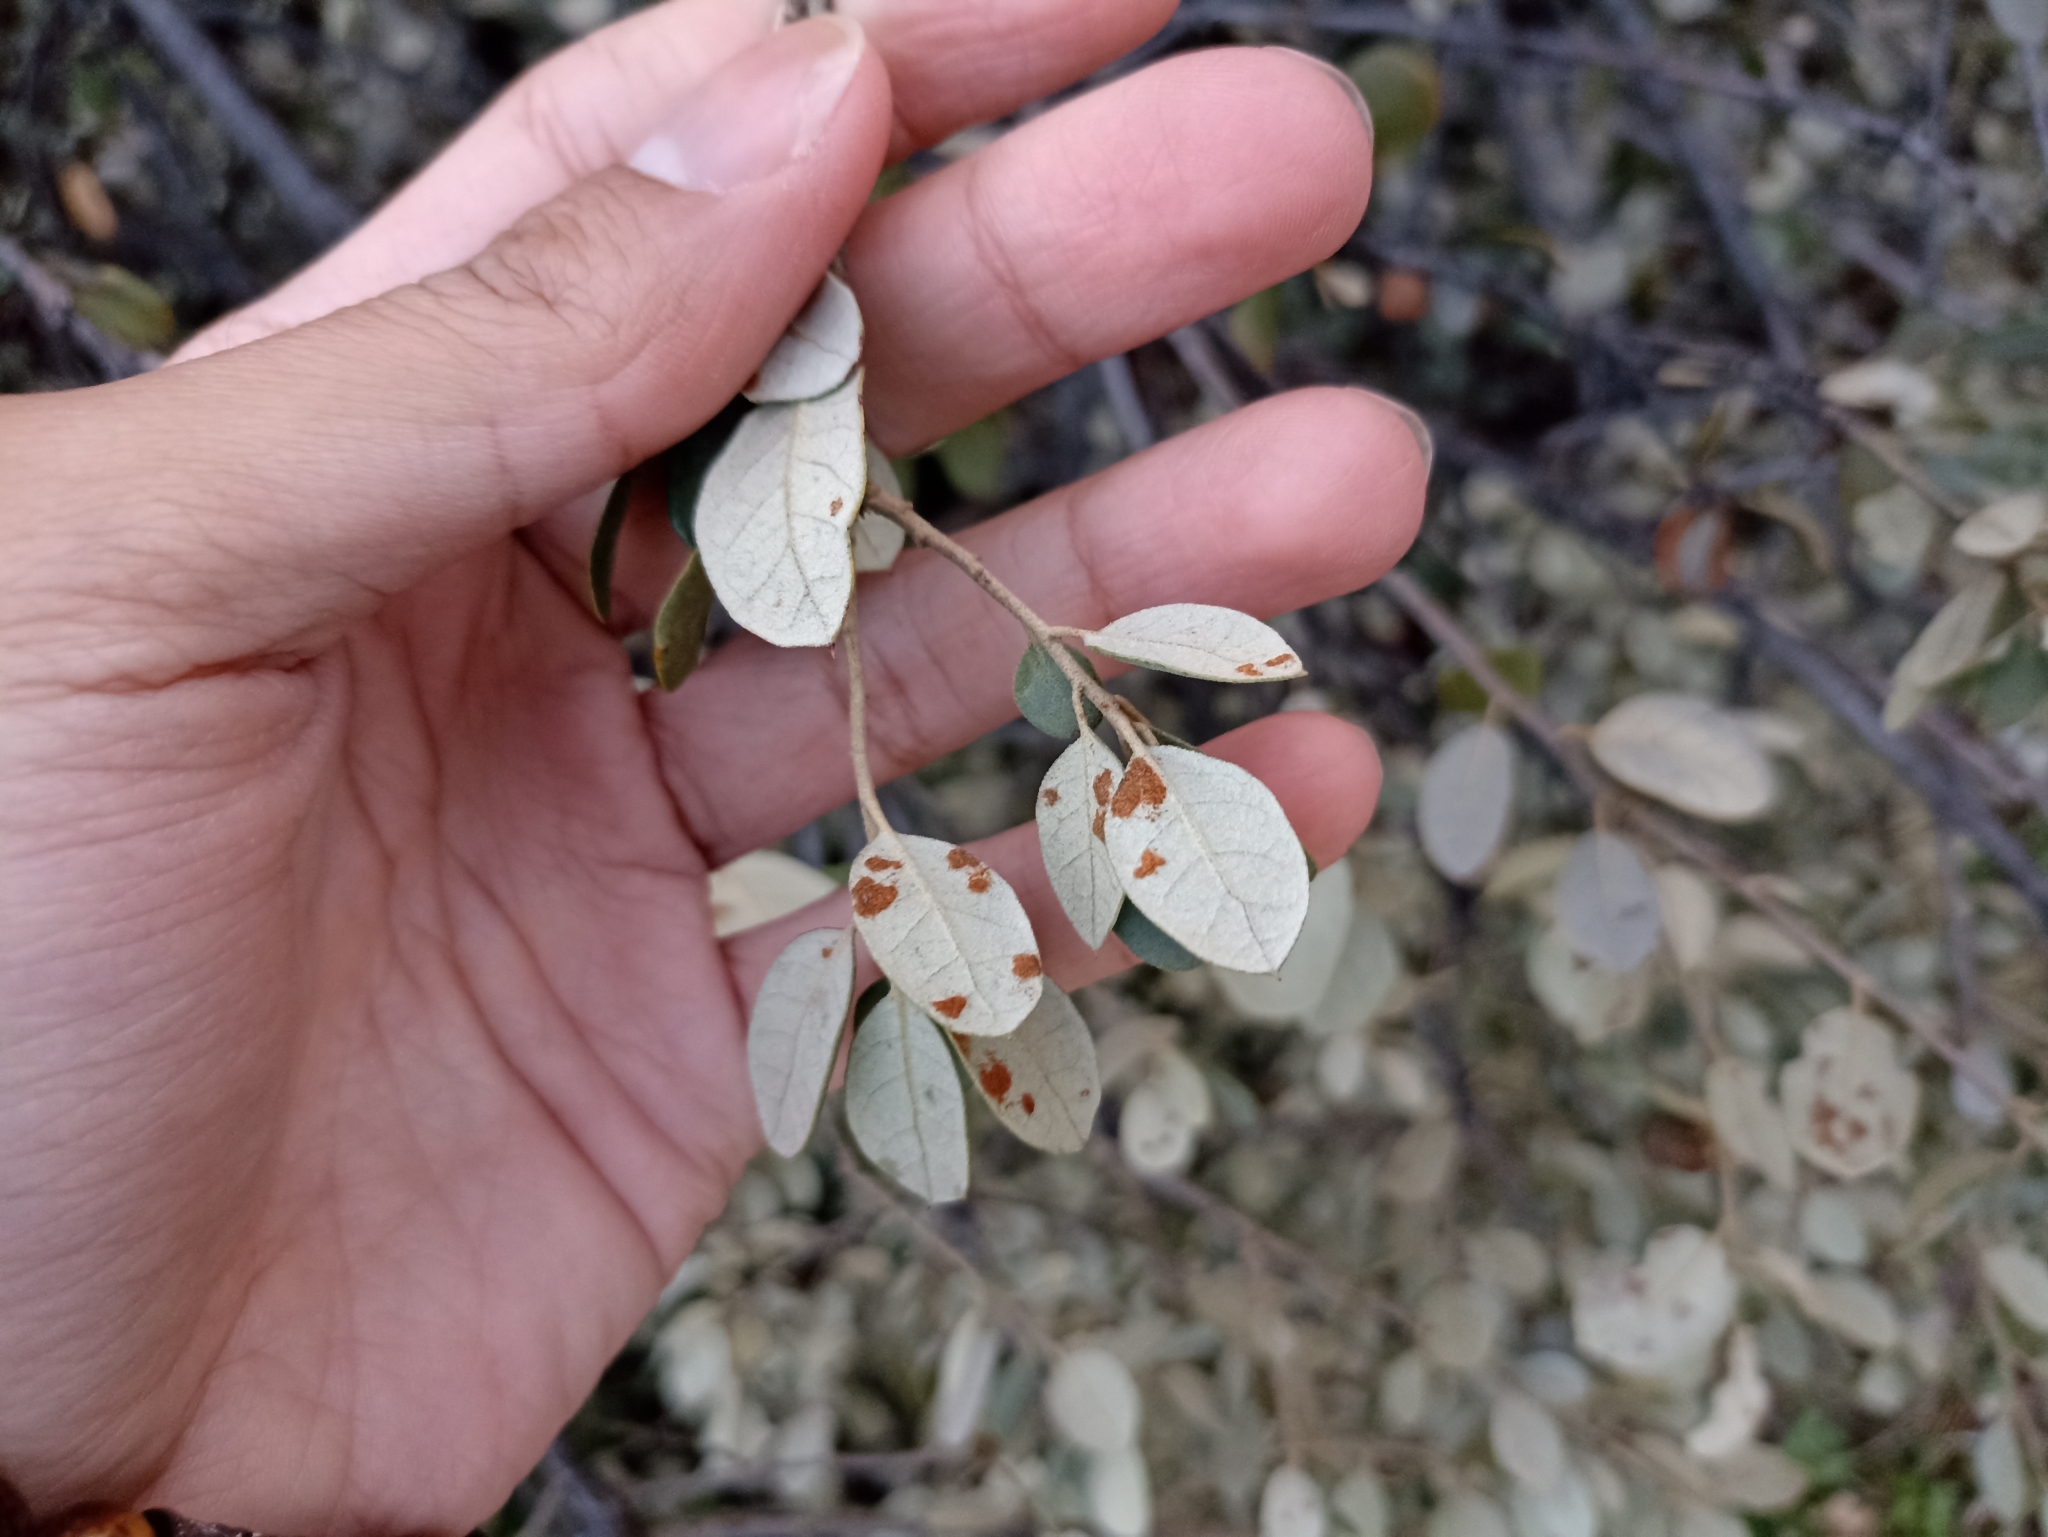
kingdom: Animalia
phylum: Arthropoda
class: Arachnida
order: Trombidiformes
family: Eriophyidae
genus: Aceria
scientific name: Aceria ilicis
